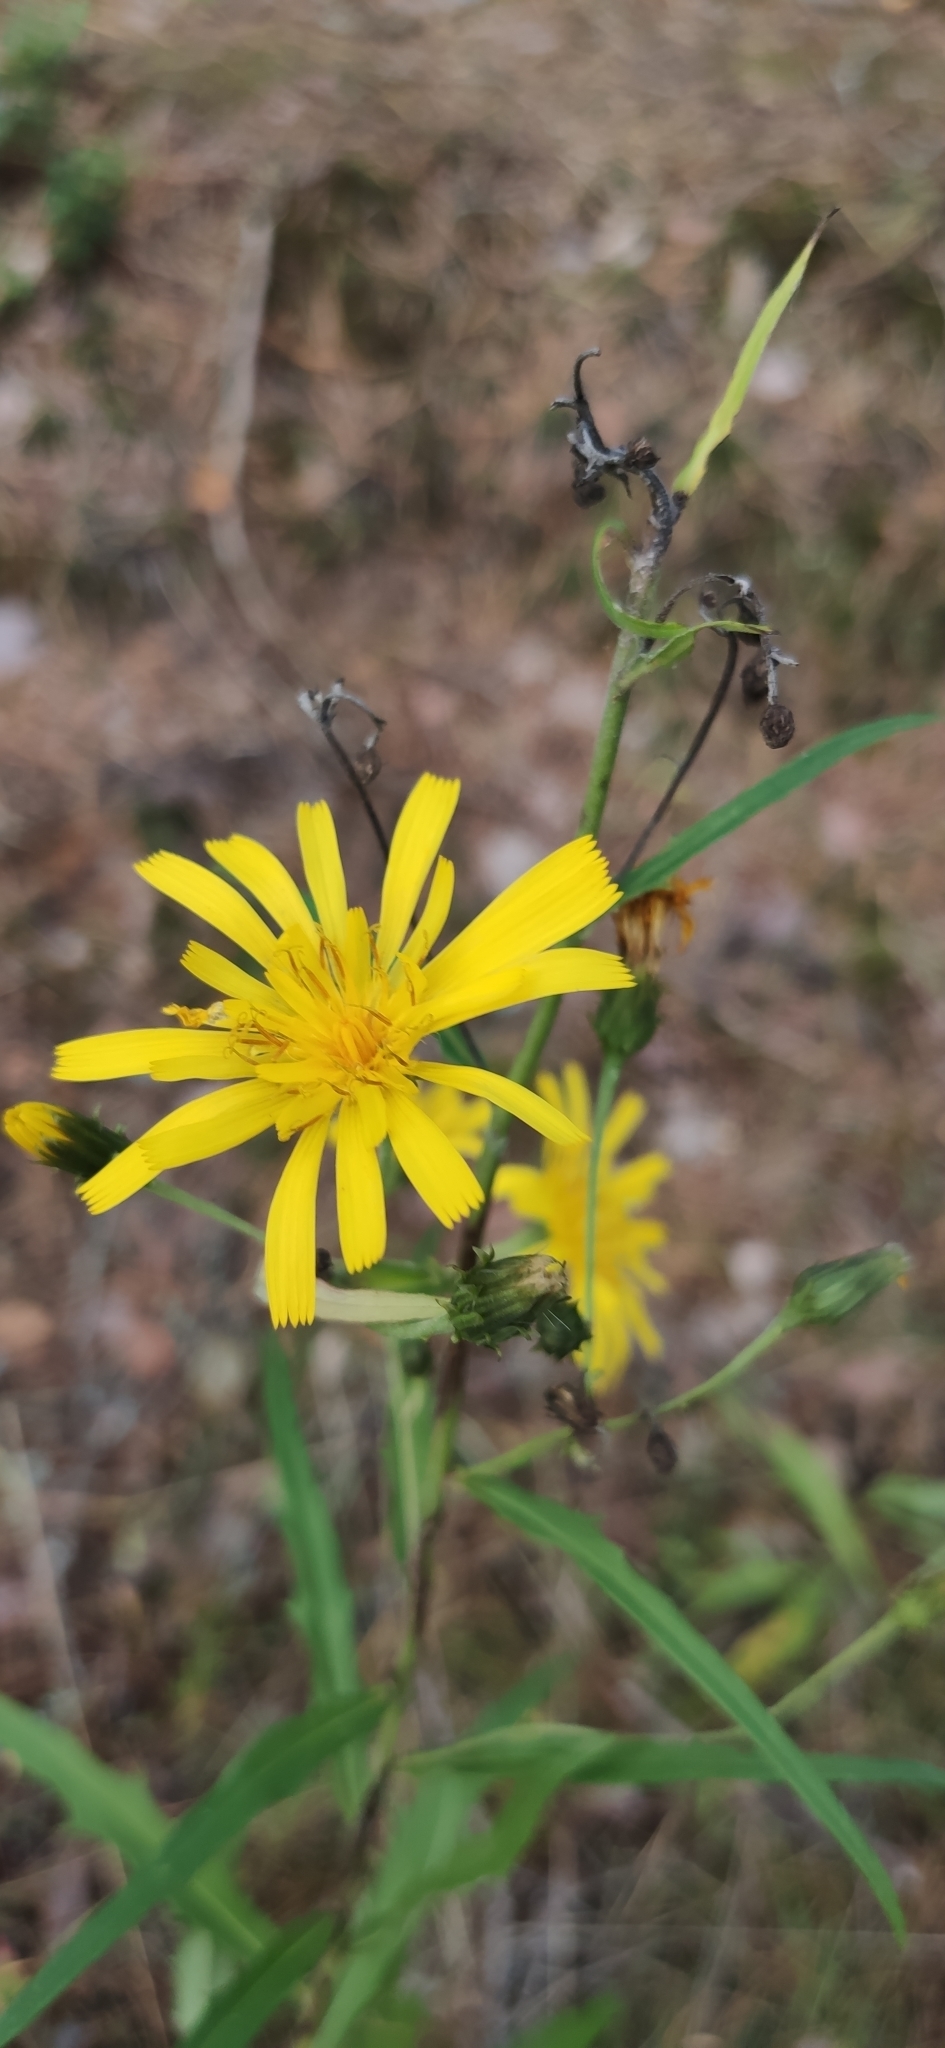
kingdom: Plantae
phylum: Tracheophyta
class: Magnoliopsida
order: Asterales
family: Asteraceae
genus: Hieracium
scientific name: Hieracium umbellatum
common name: Northern hawkweed
